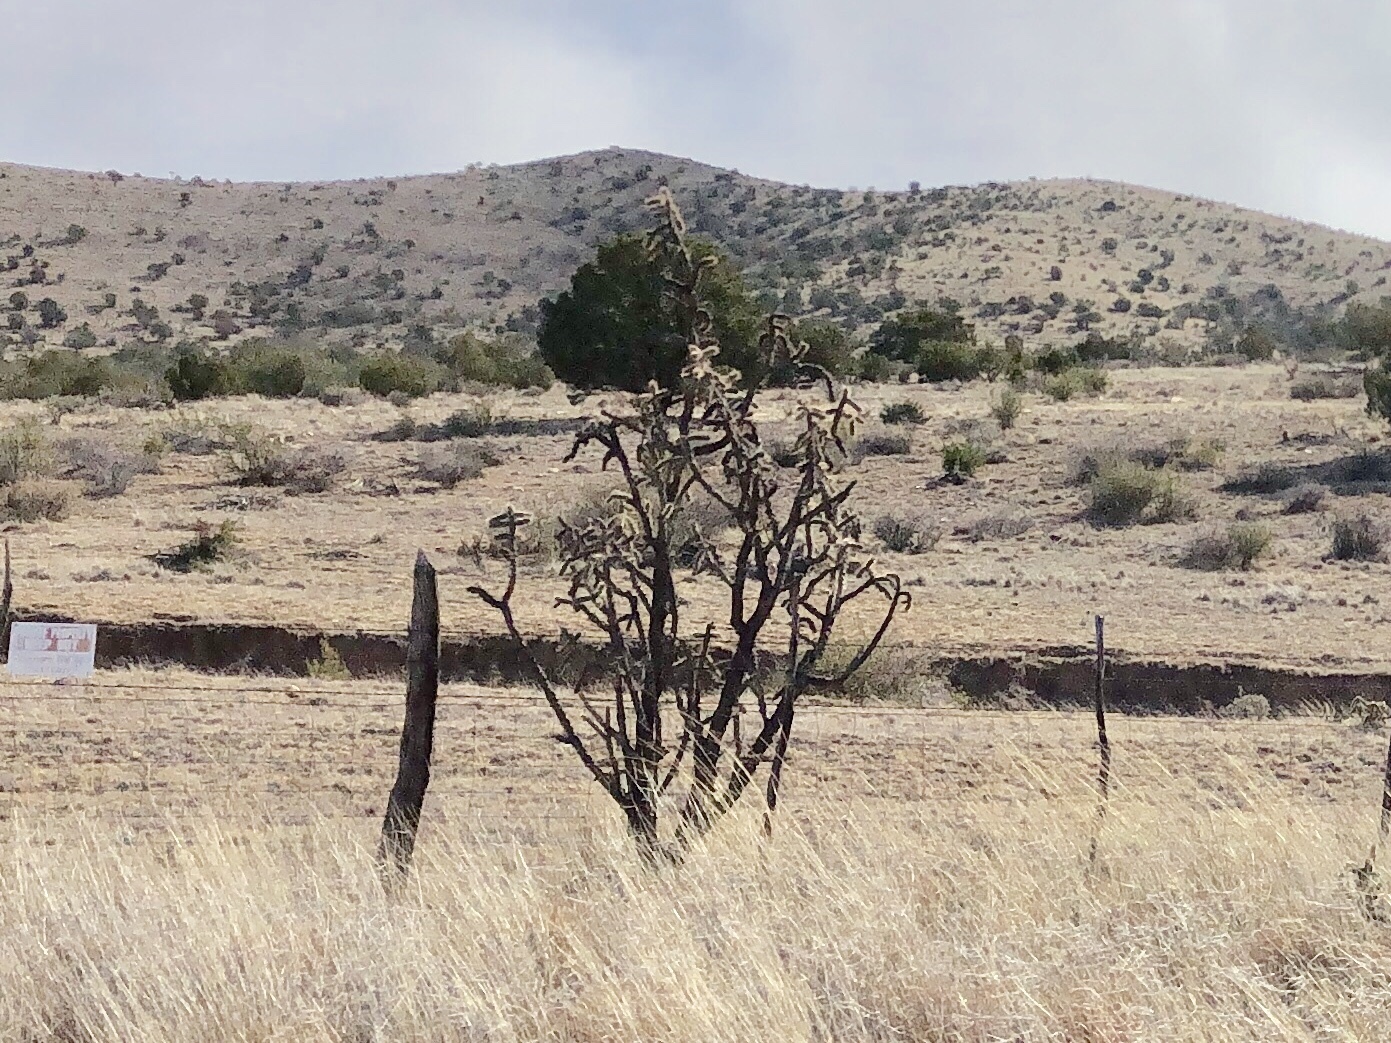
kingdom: Plantae
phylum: Tracheophyta
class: Magnoliopsida
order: Caryophyllales
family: Cactaceae
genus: Cylindropuntia
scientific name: Cylindropuntia imbricata
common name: Candelabrum cactus
